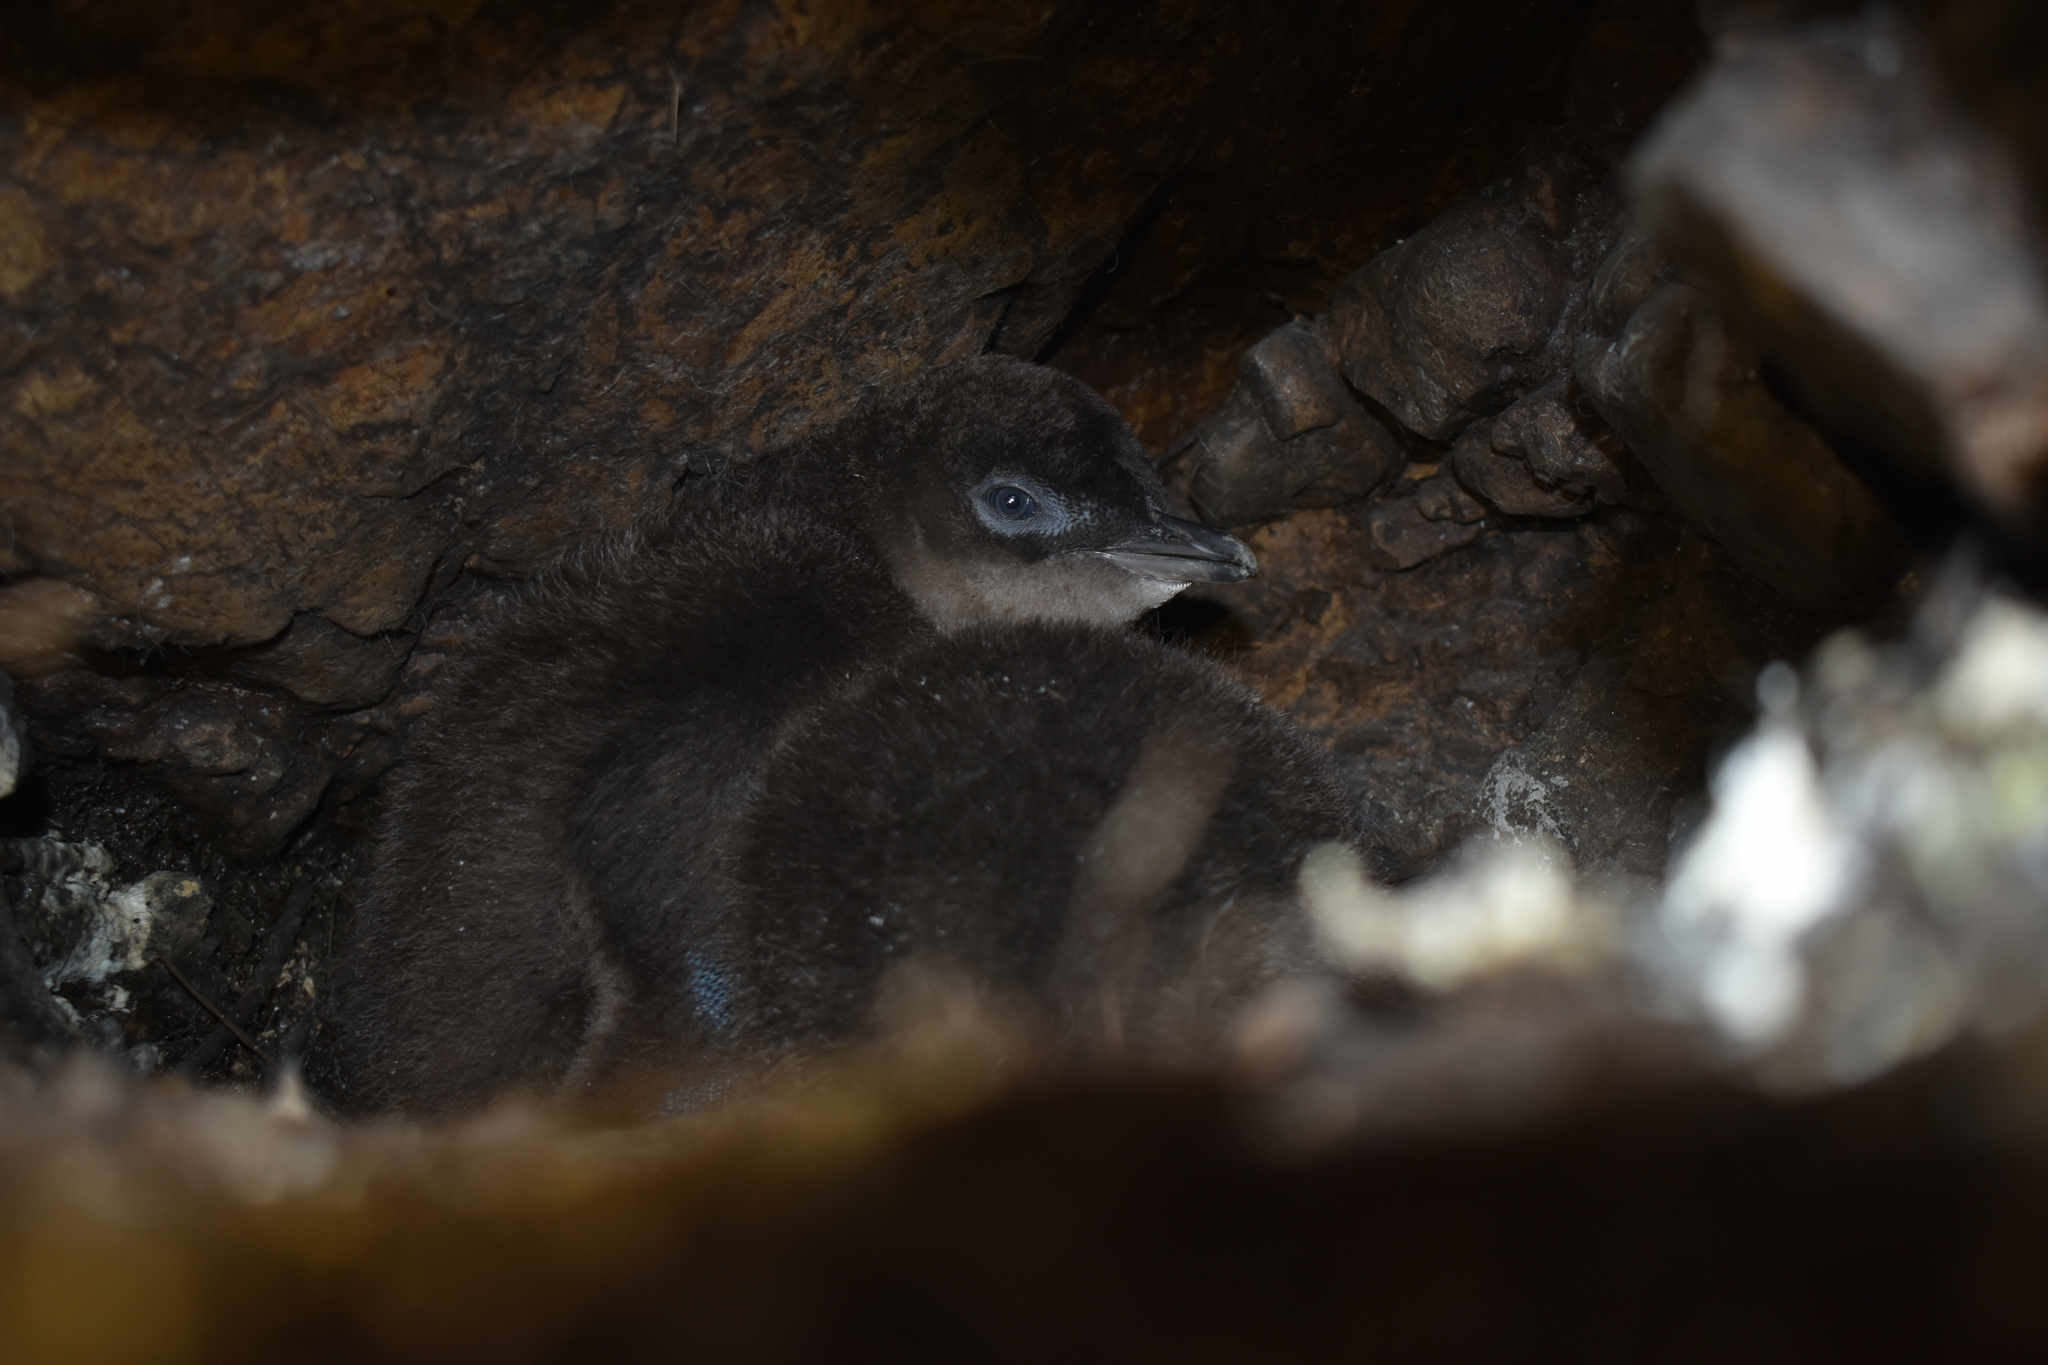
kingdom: Animalia
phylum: Chordata
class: Aves
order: Sphenisciformes
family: Spheniscidae
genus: Eudyptula
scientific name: Eudyptula minor
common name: Little penguin
